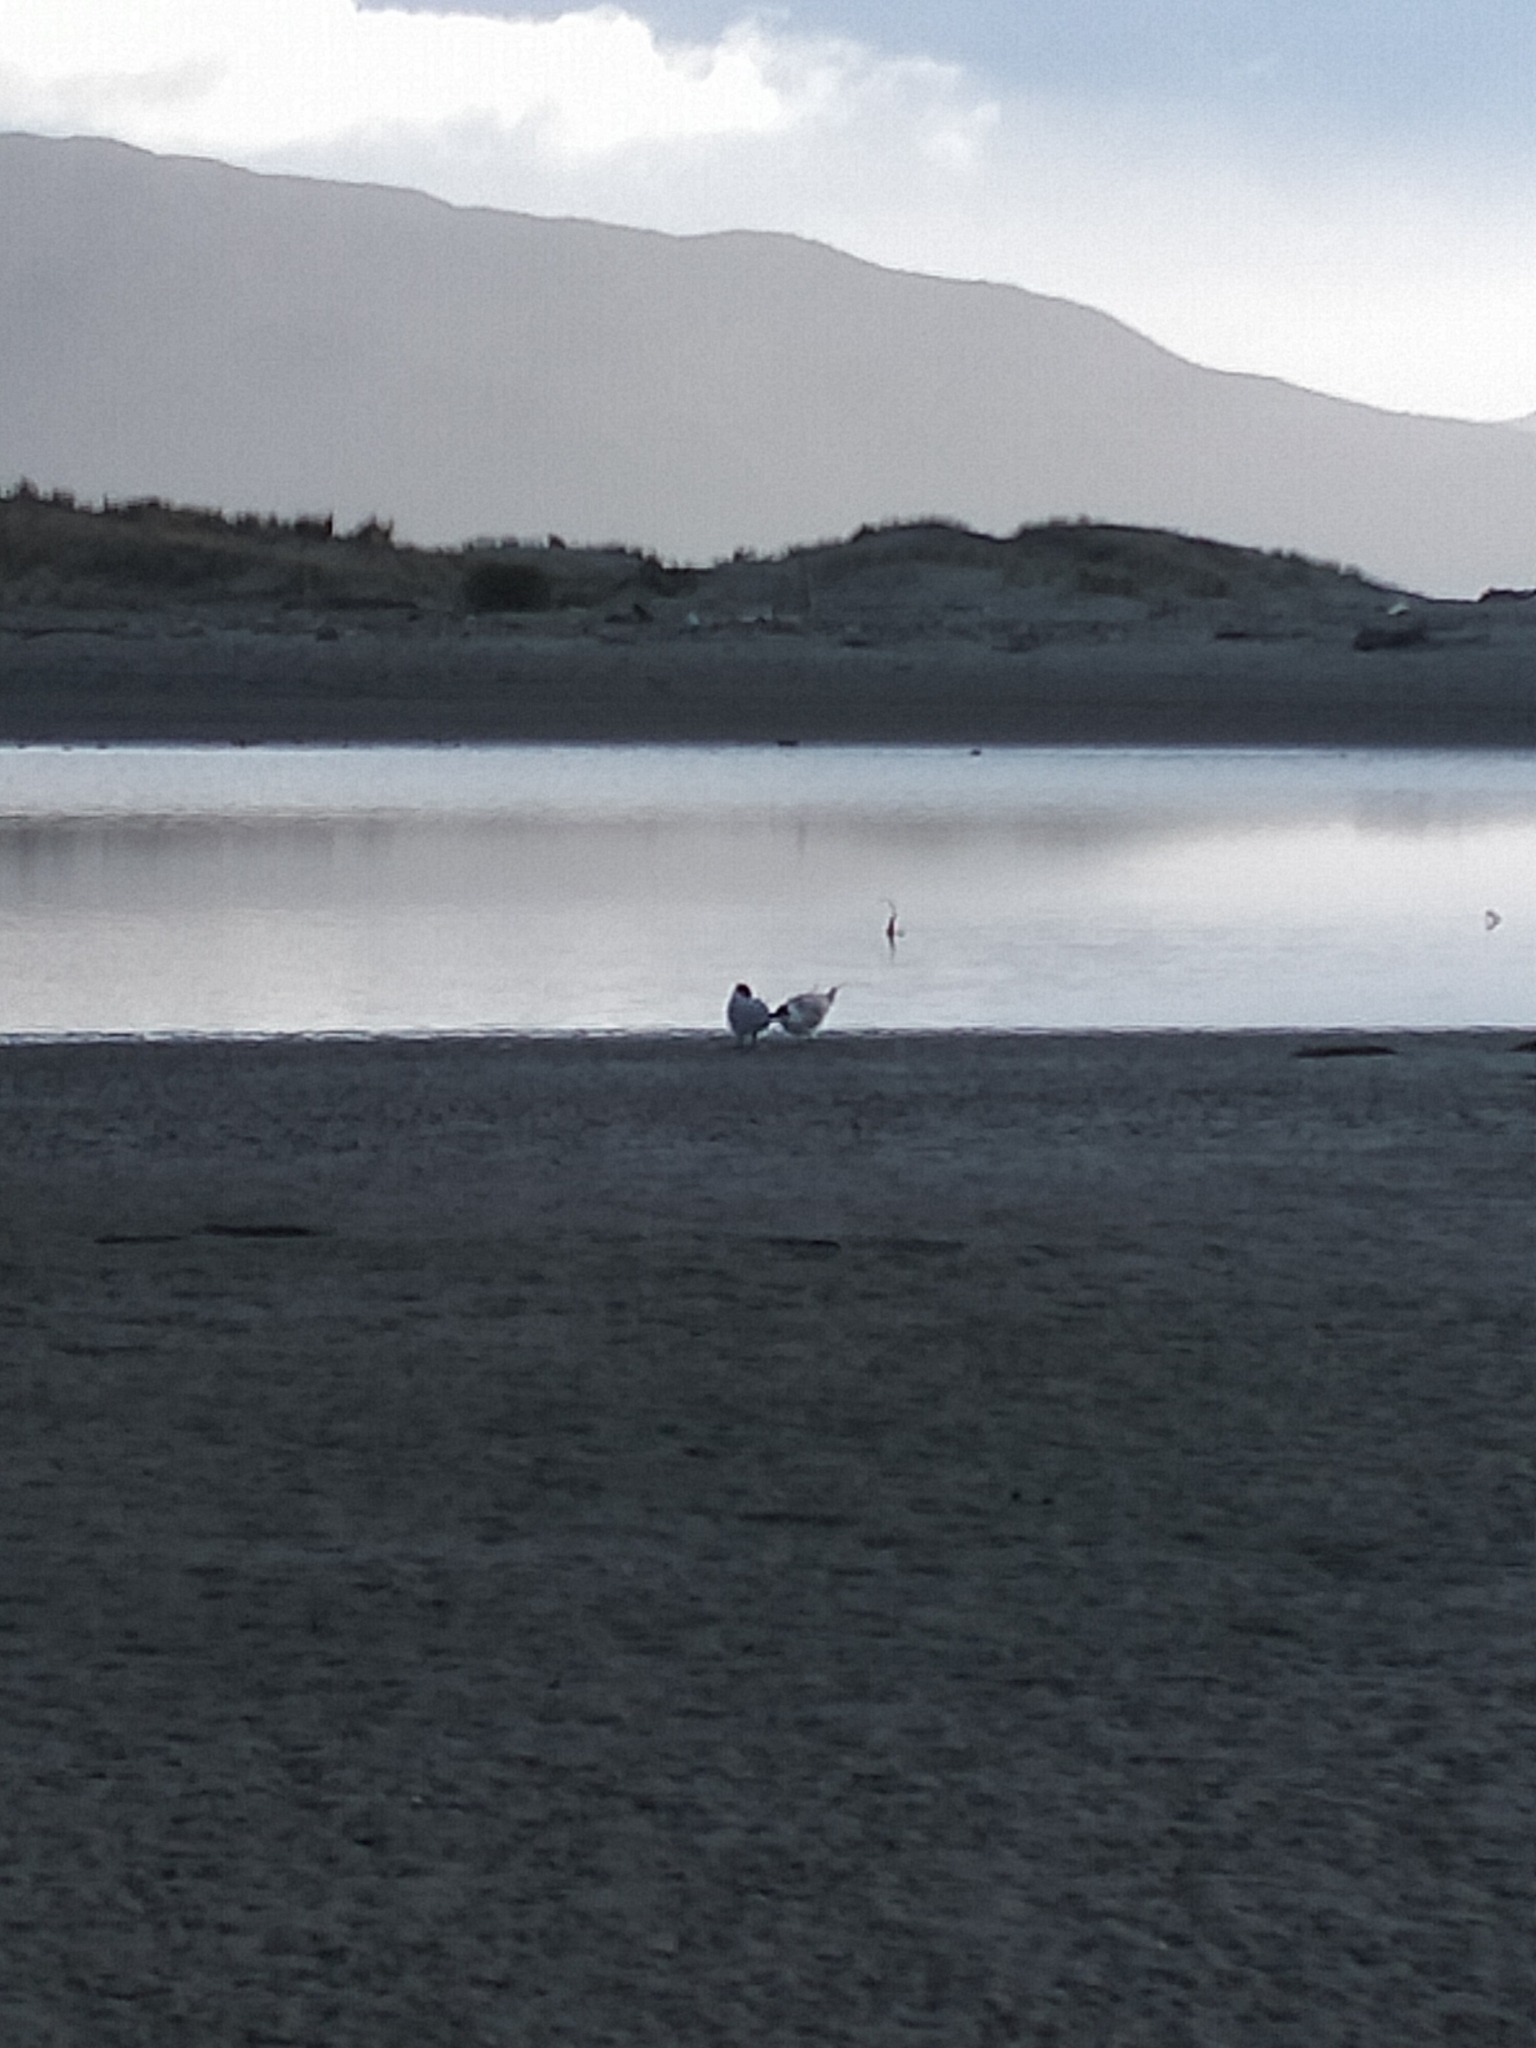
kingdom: Animalia
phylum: Chordata
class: Aves
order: Charadriiformes
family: Laridae
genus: Hydroprogne
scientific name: Hydroprogne caspia
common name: Caspian tern
